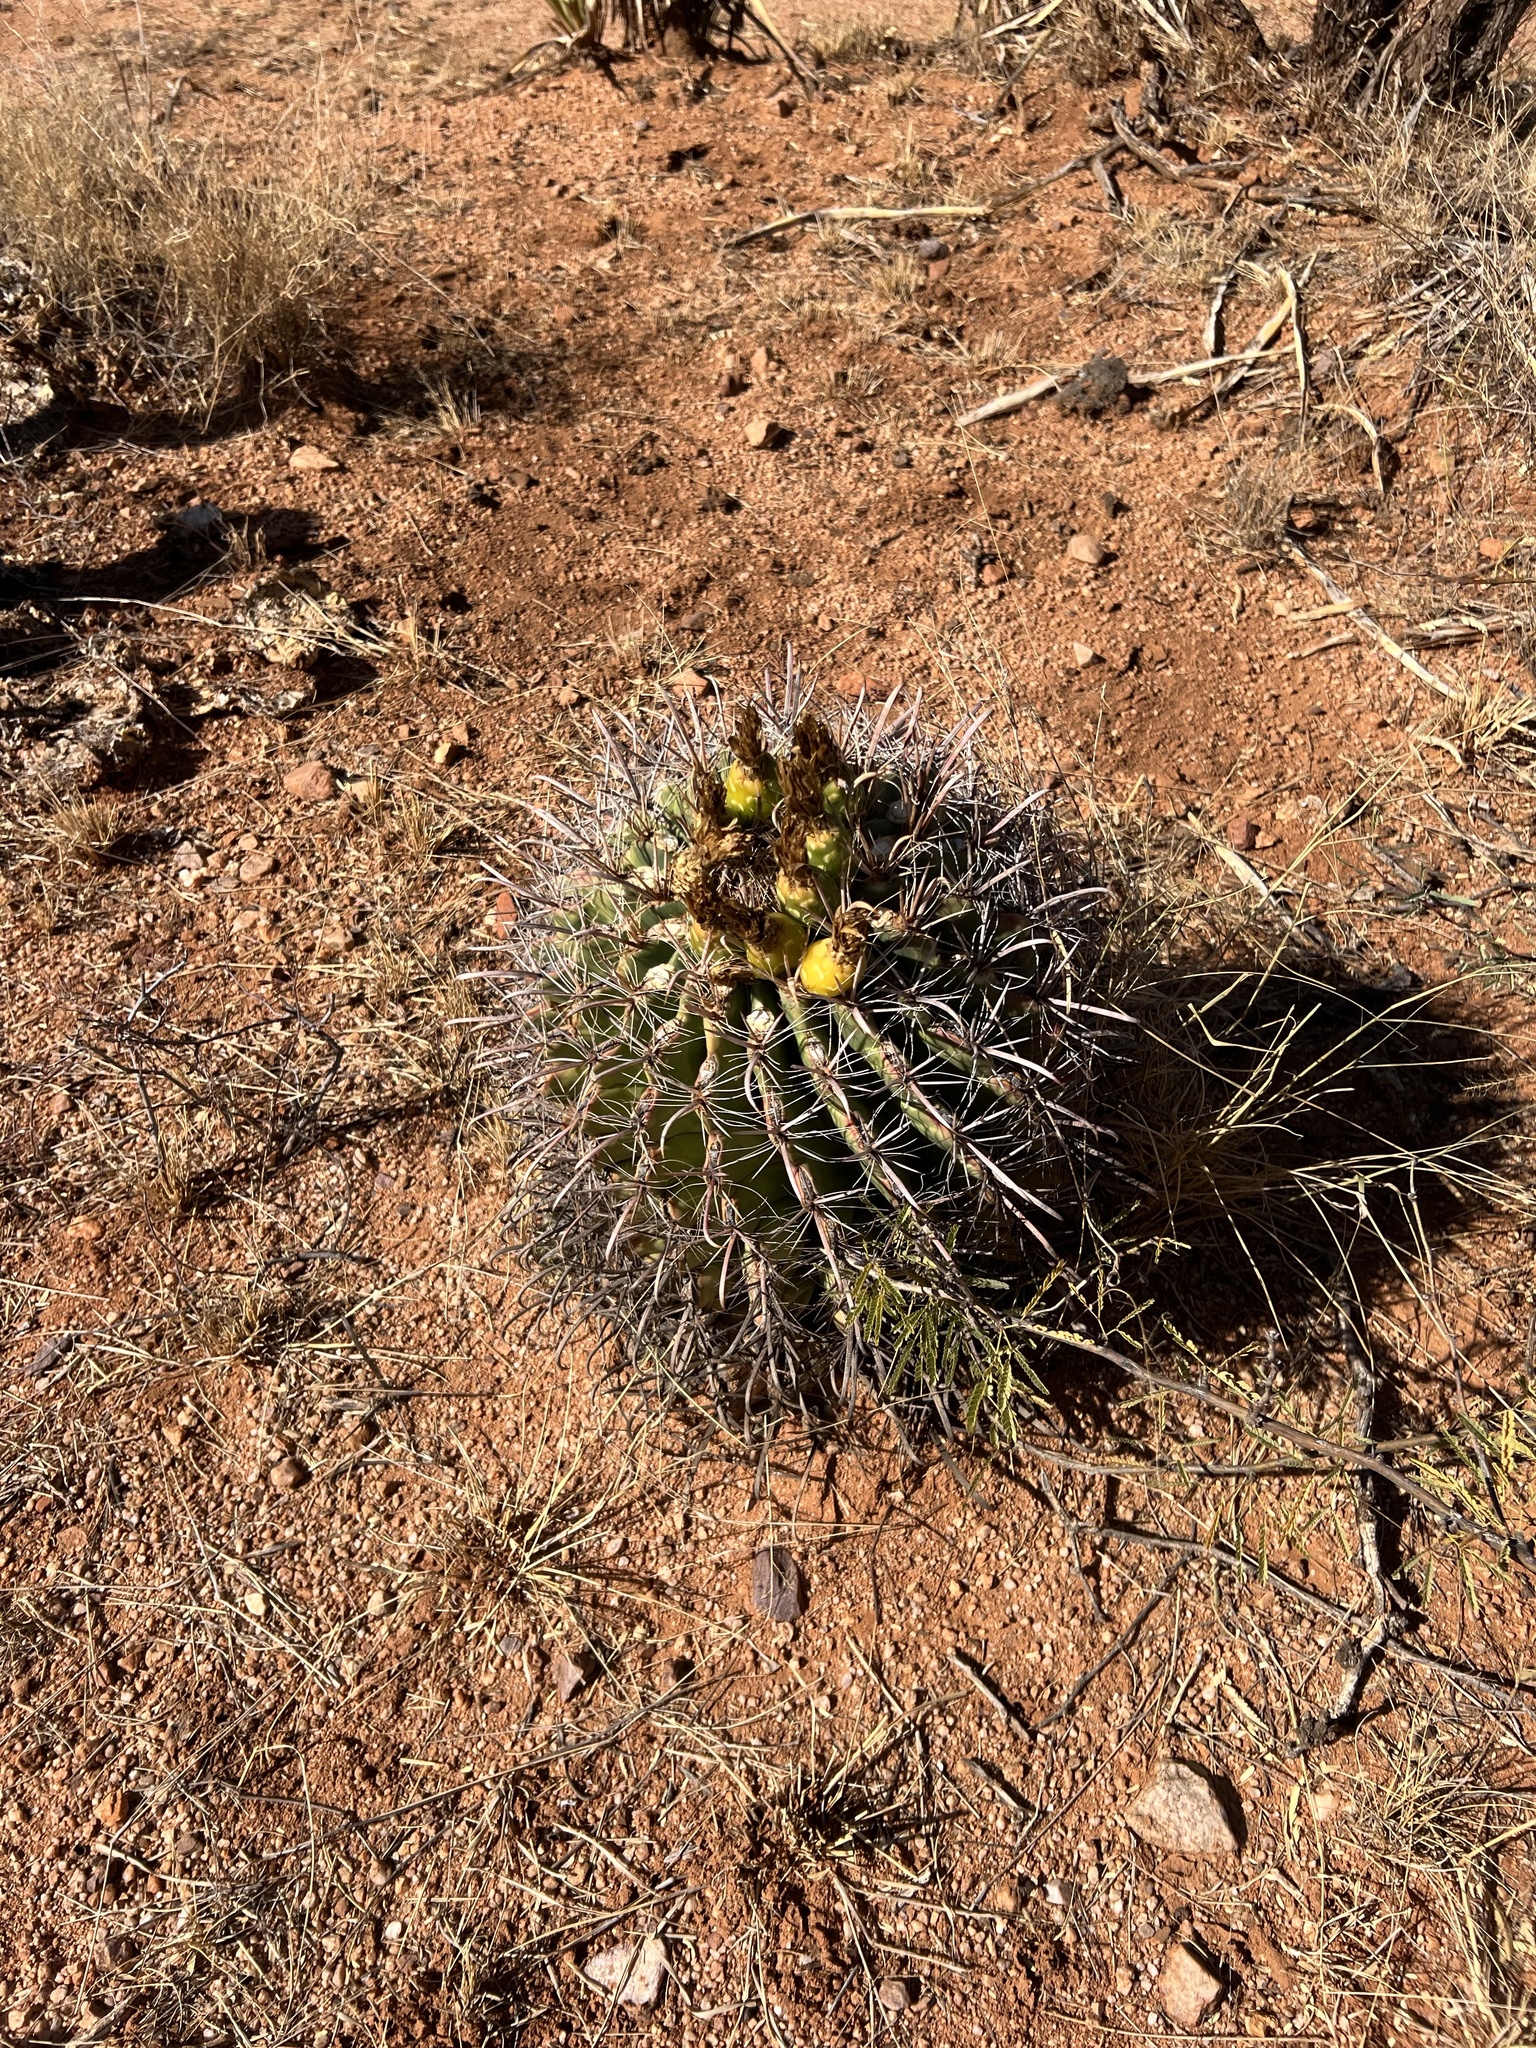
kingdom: Plantae
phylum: Tracheophyta
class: Magnoliopsida
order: Caryophyllales
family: Cactaceae
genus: Ferocactus
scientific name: Ferocactus wislizeni
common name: Candy barrel cactus
